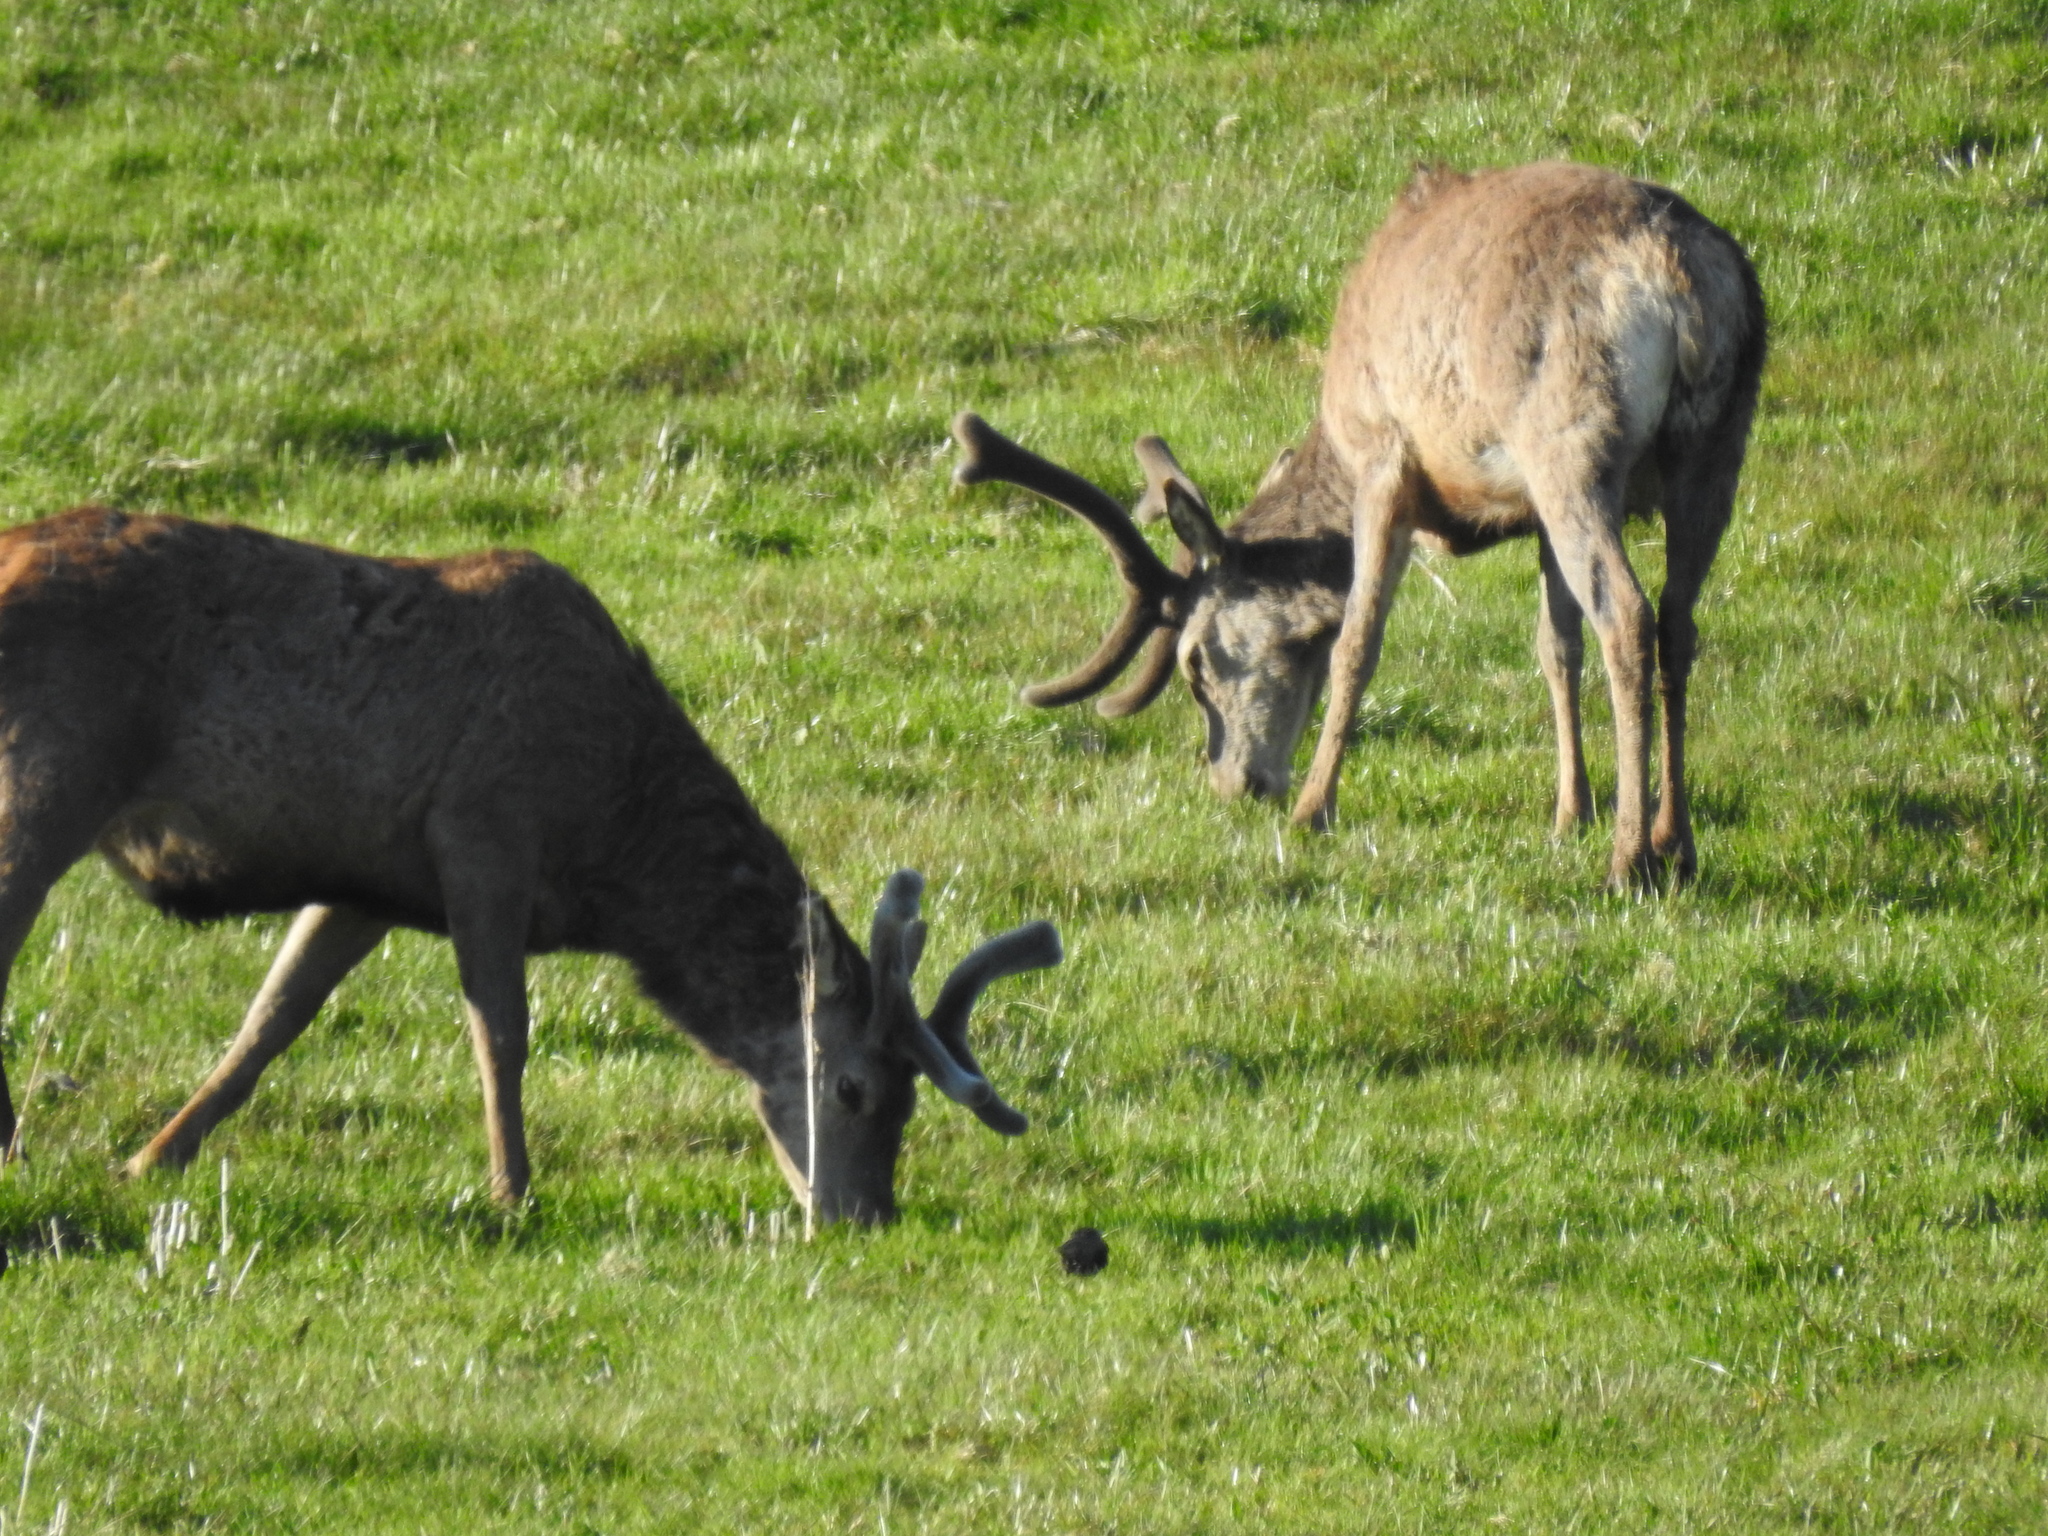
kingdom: Animalia
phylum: Chordata
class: Mammalia
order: Artiodactyla
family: Cervidae
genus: Cervus
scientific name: Cervus elaphus
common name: Red deer
